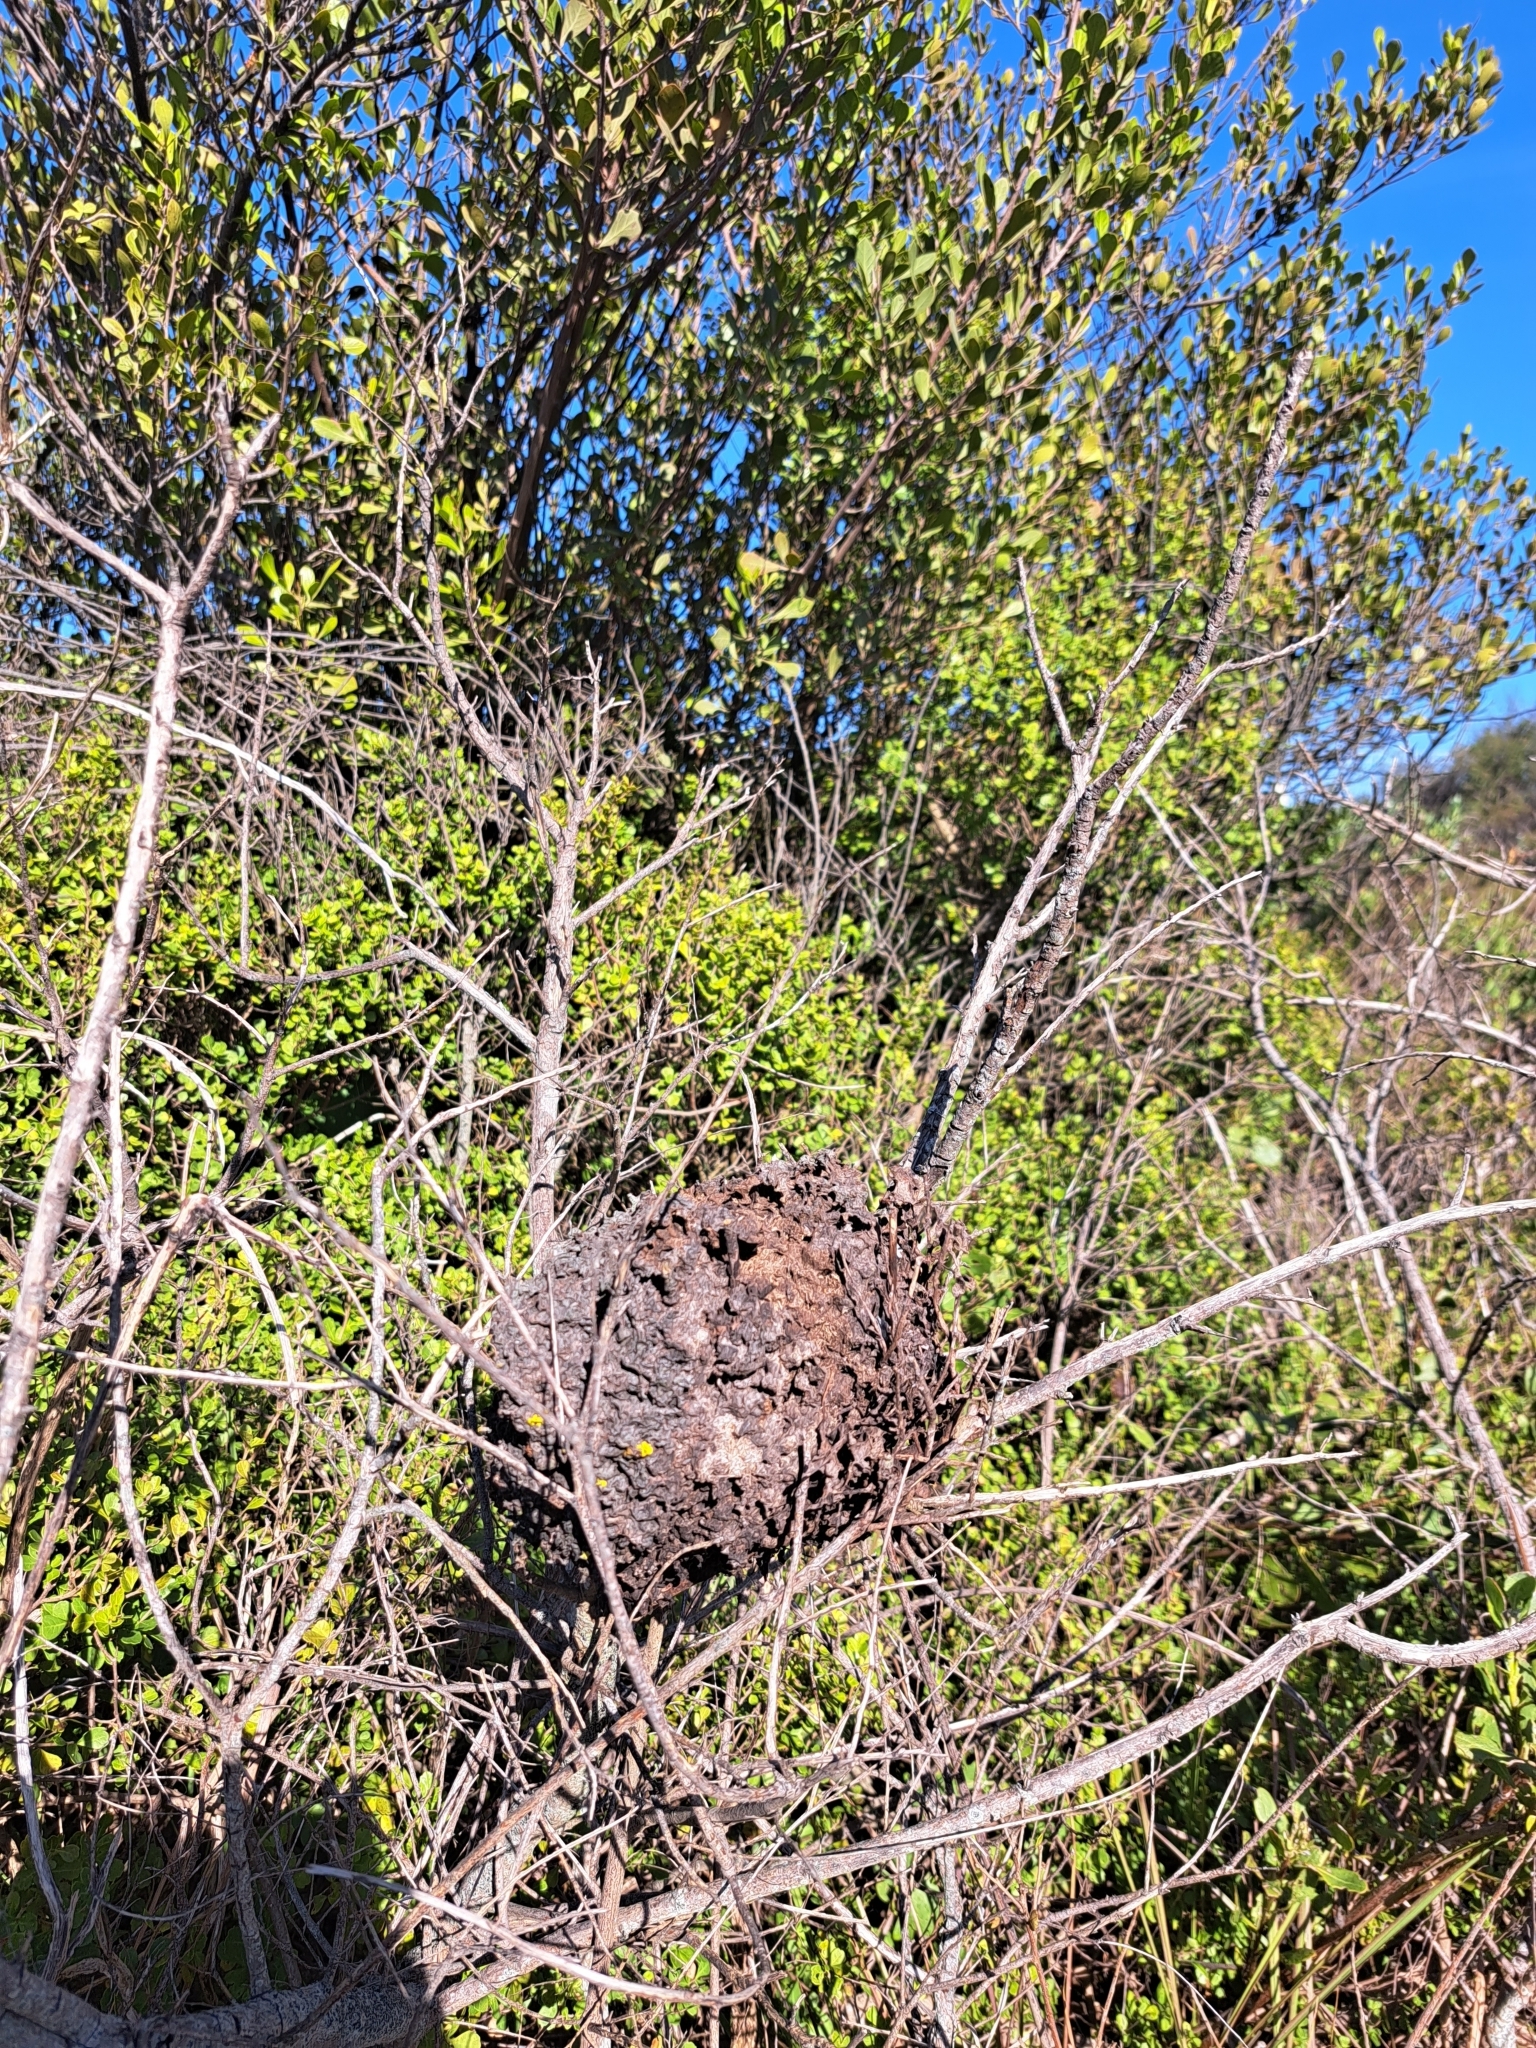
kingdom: Animalia
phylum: Arthropoda
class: Insecta
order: Hymenoptera
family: Formicidae
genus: Crematogaster
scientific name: Crematogaster peringueyi
